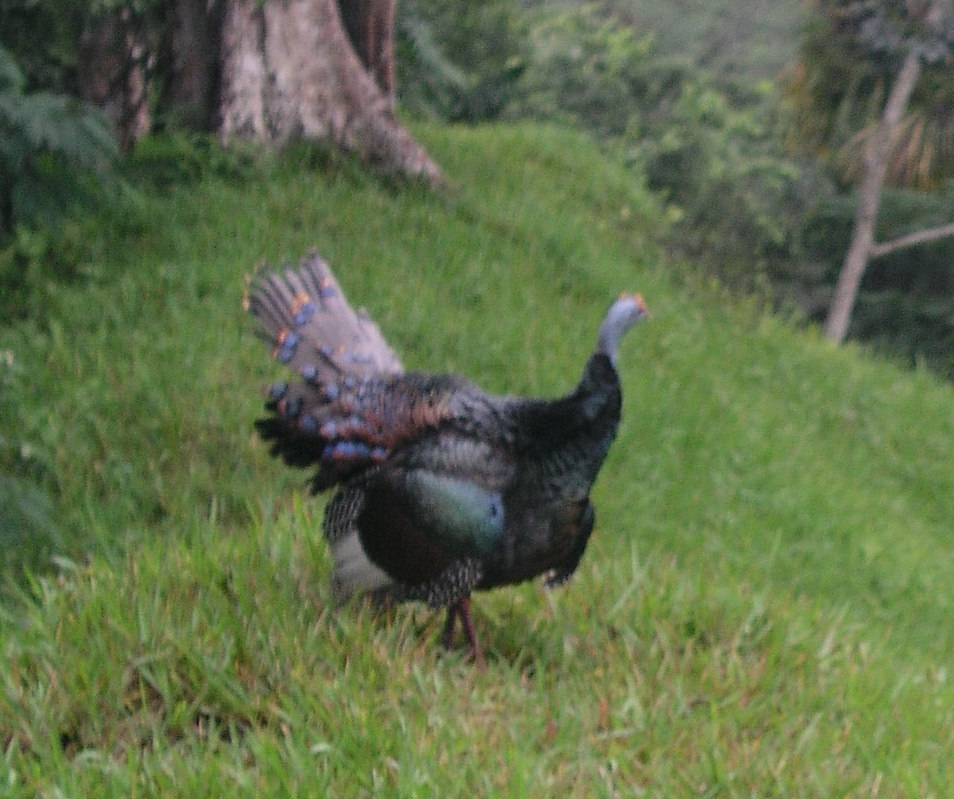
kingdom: Animalia
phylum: Chordata
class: Aves
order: Galliformes
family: Phasianidae
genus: Meleagris
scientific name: Meleagris ocellata
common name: Ocellated turkey
